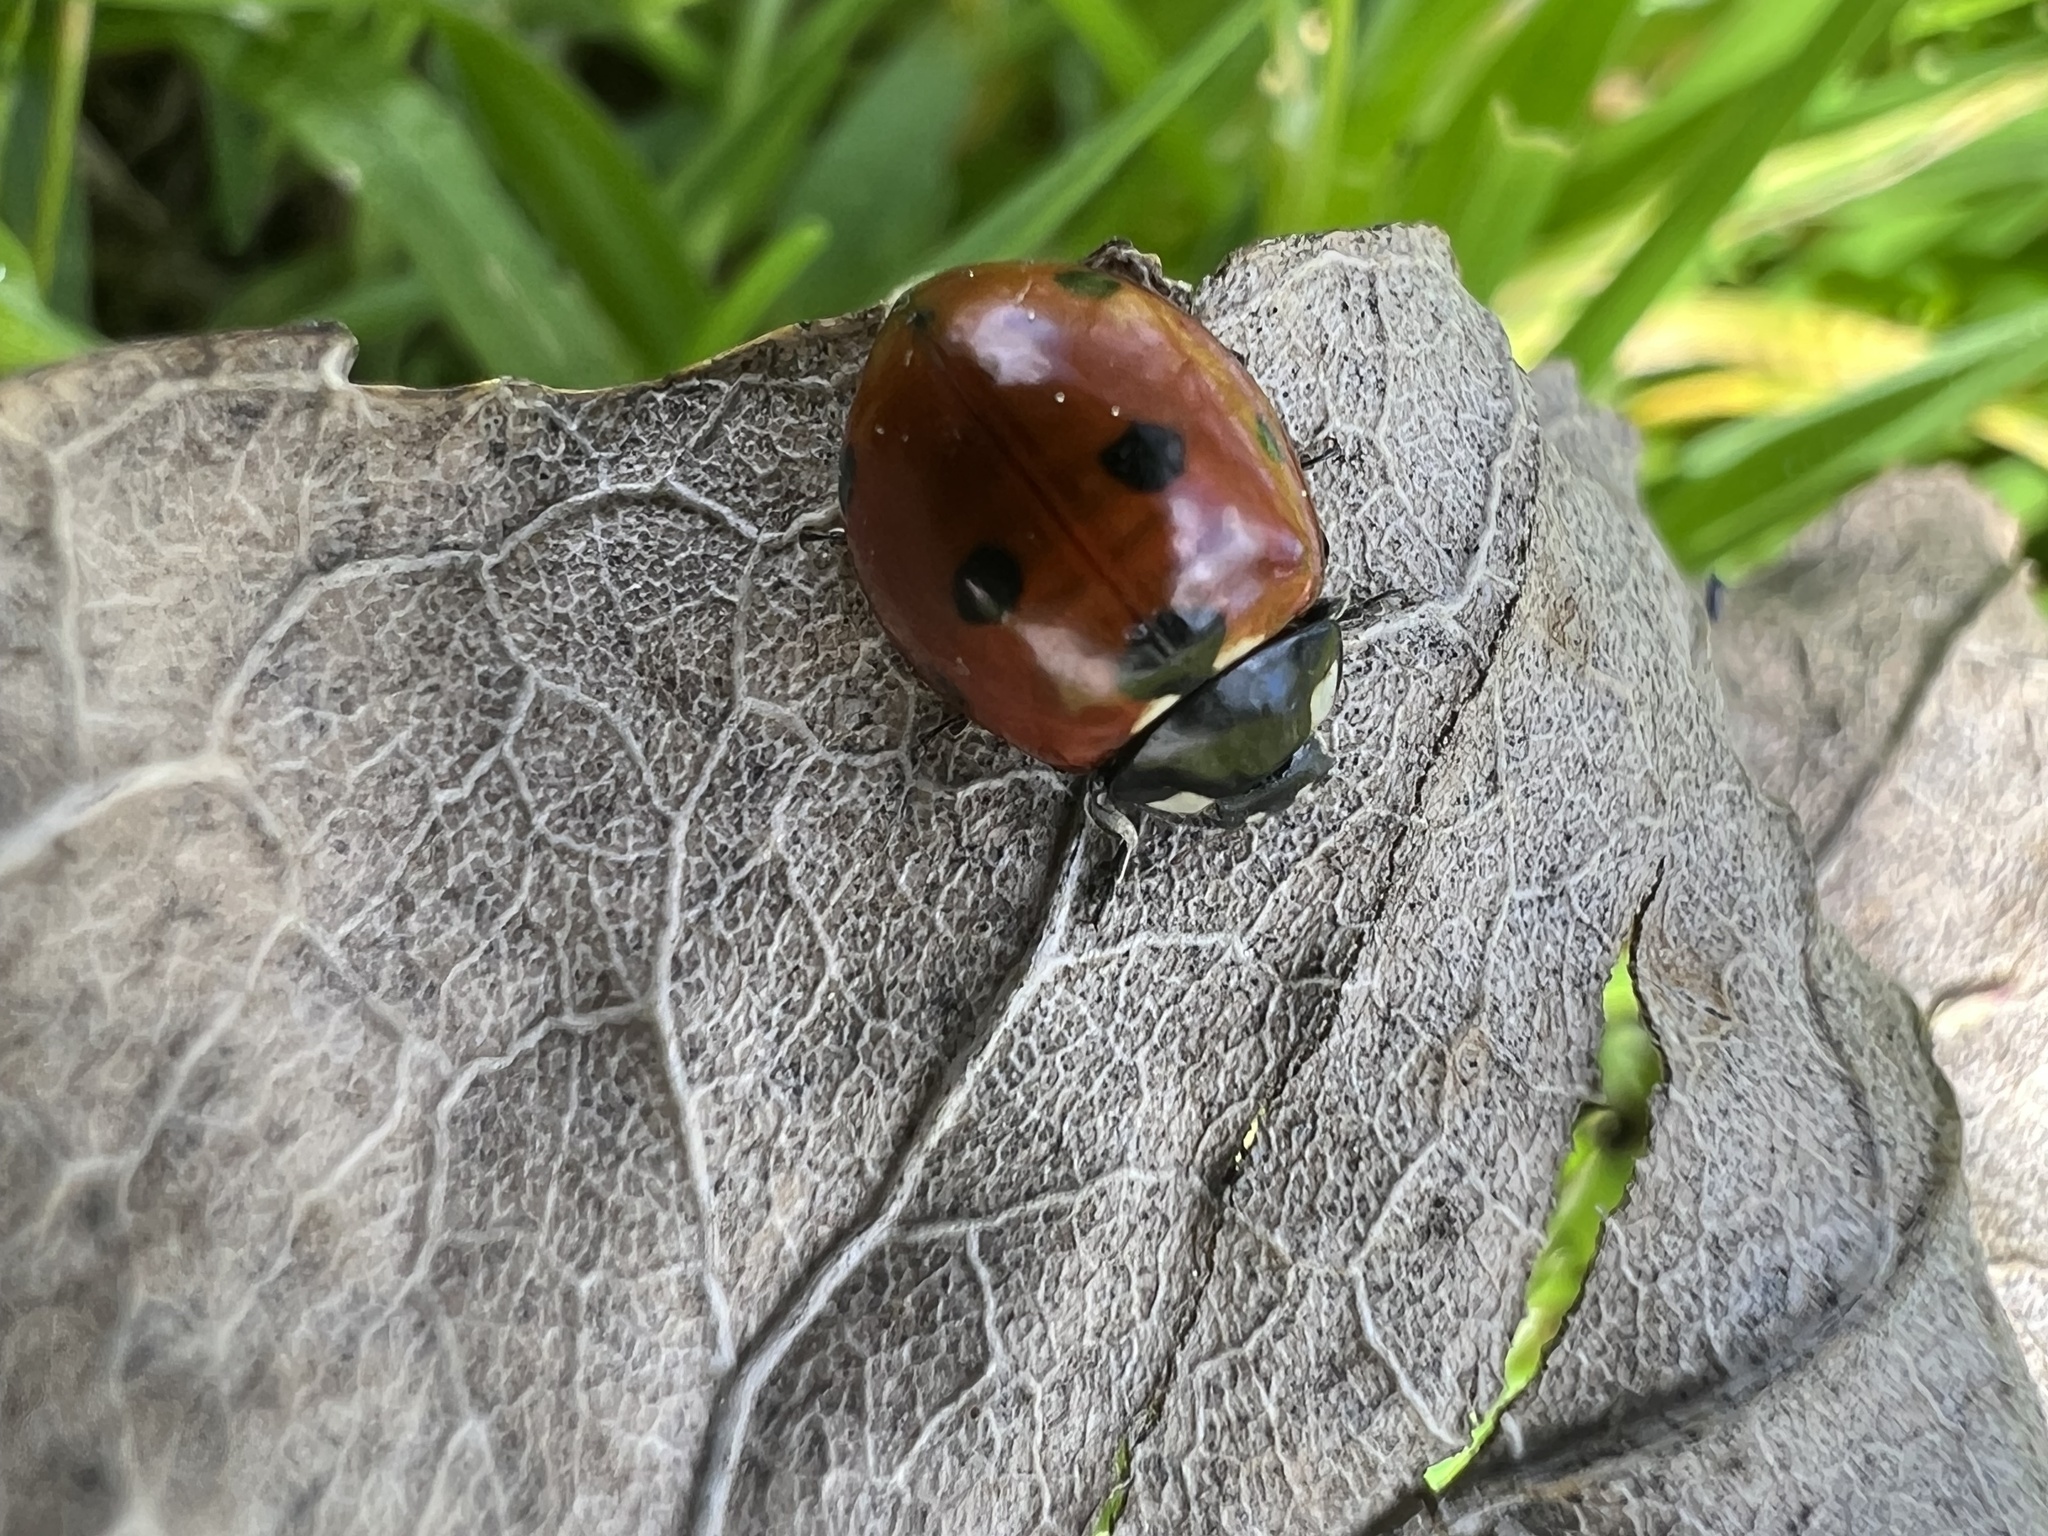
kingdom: Animalia
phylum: Arthropoda
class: Insecta
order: Coleoptera
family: Coccinellidae
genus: Coccinella
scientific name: Coccinella septempunctata
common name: Sevenspotted lady beetle
